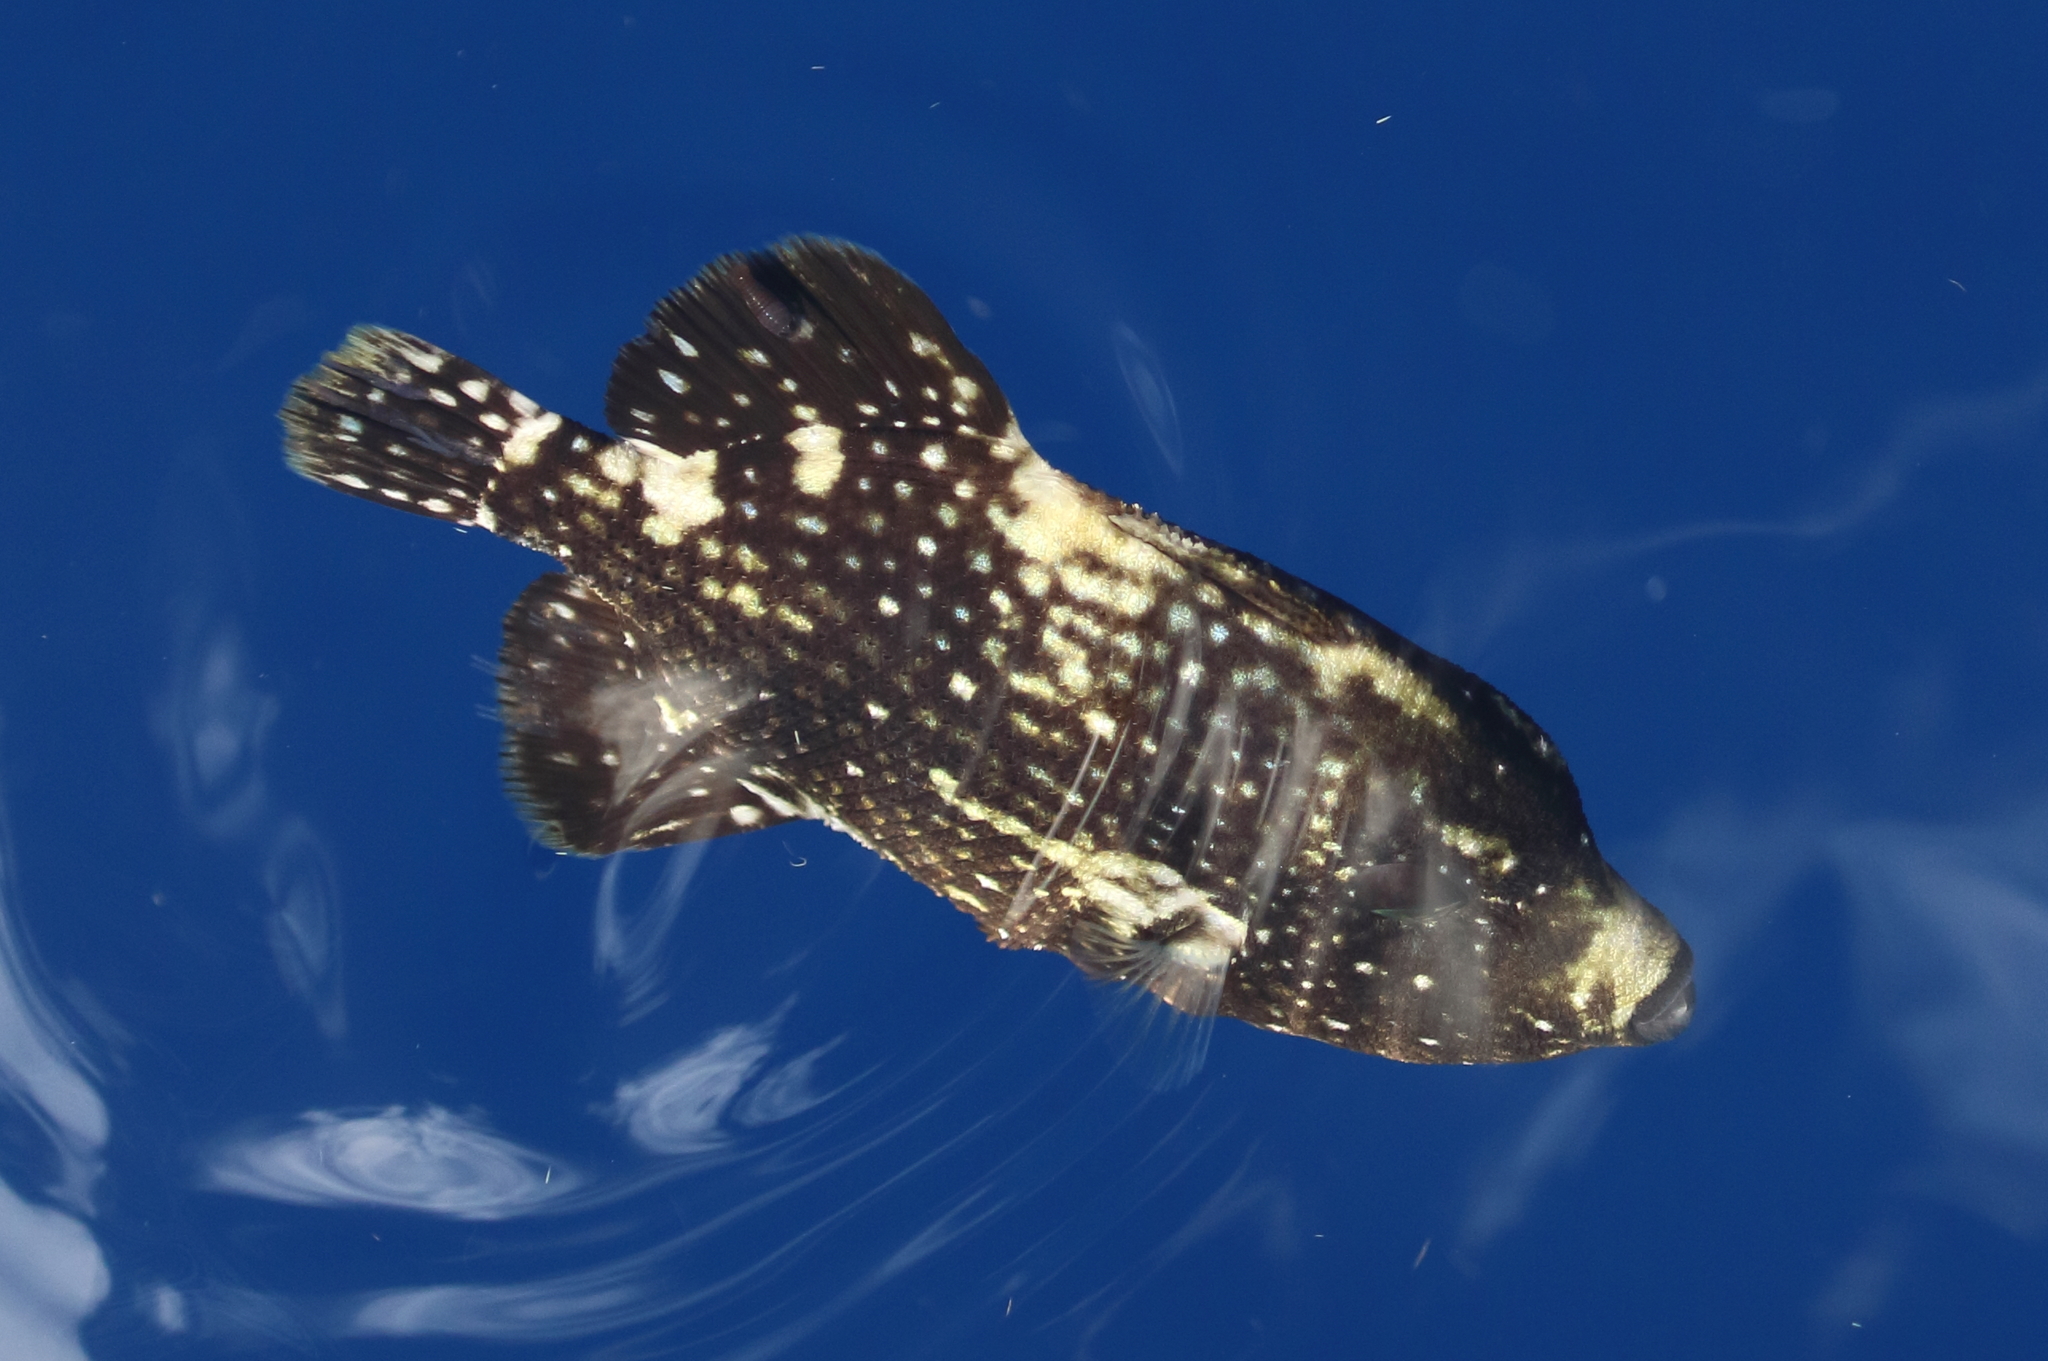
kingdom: Animalia
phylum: Chordata
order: Tetraodontiformes
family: Balistidae
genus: Canthidermis
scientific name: Canthidermis maculata
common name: Rough triggerfish
